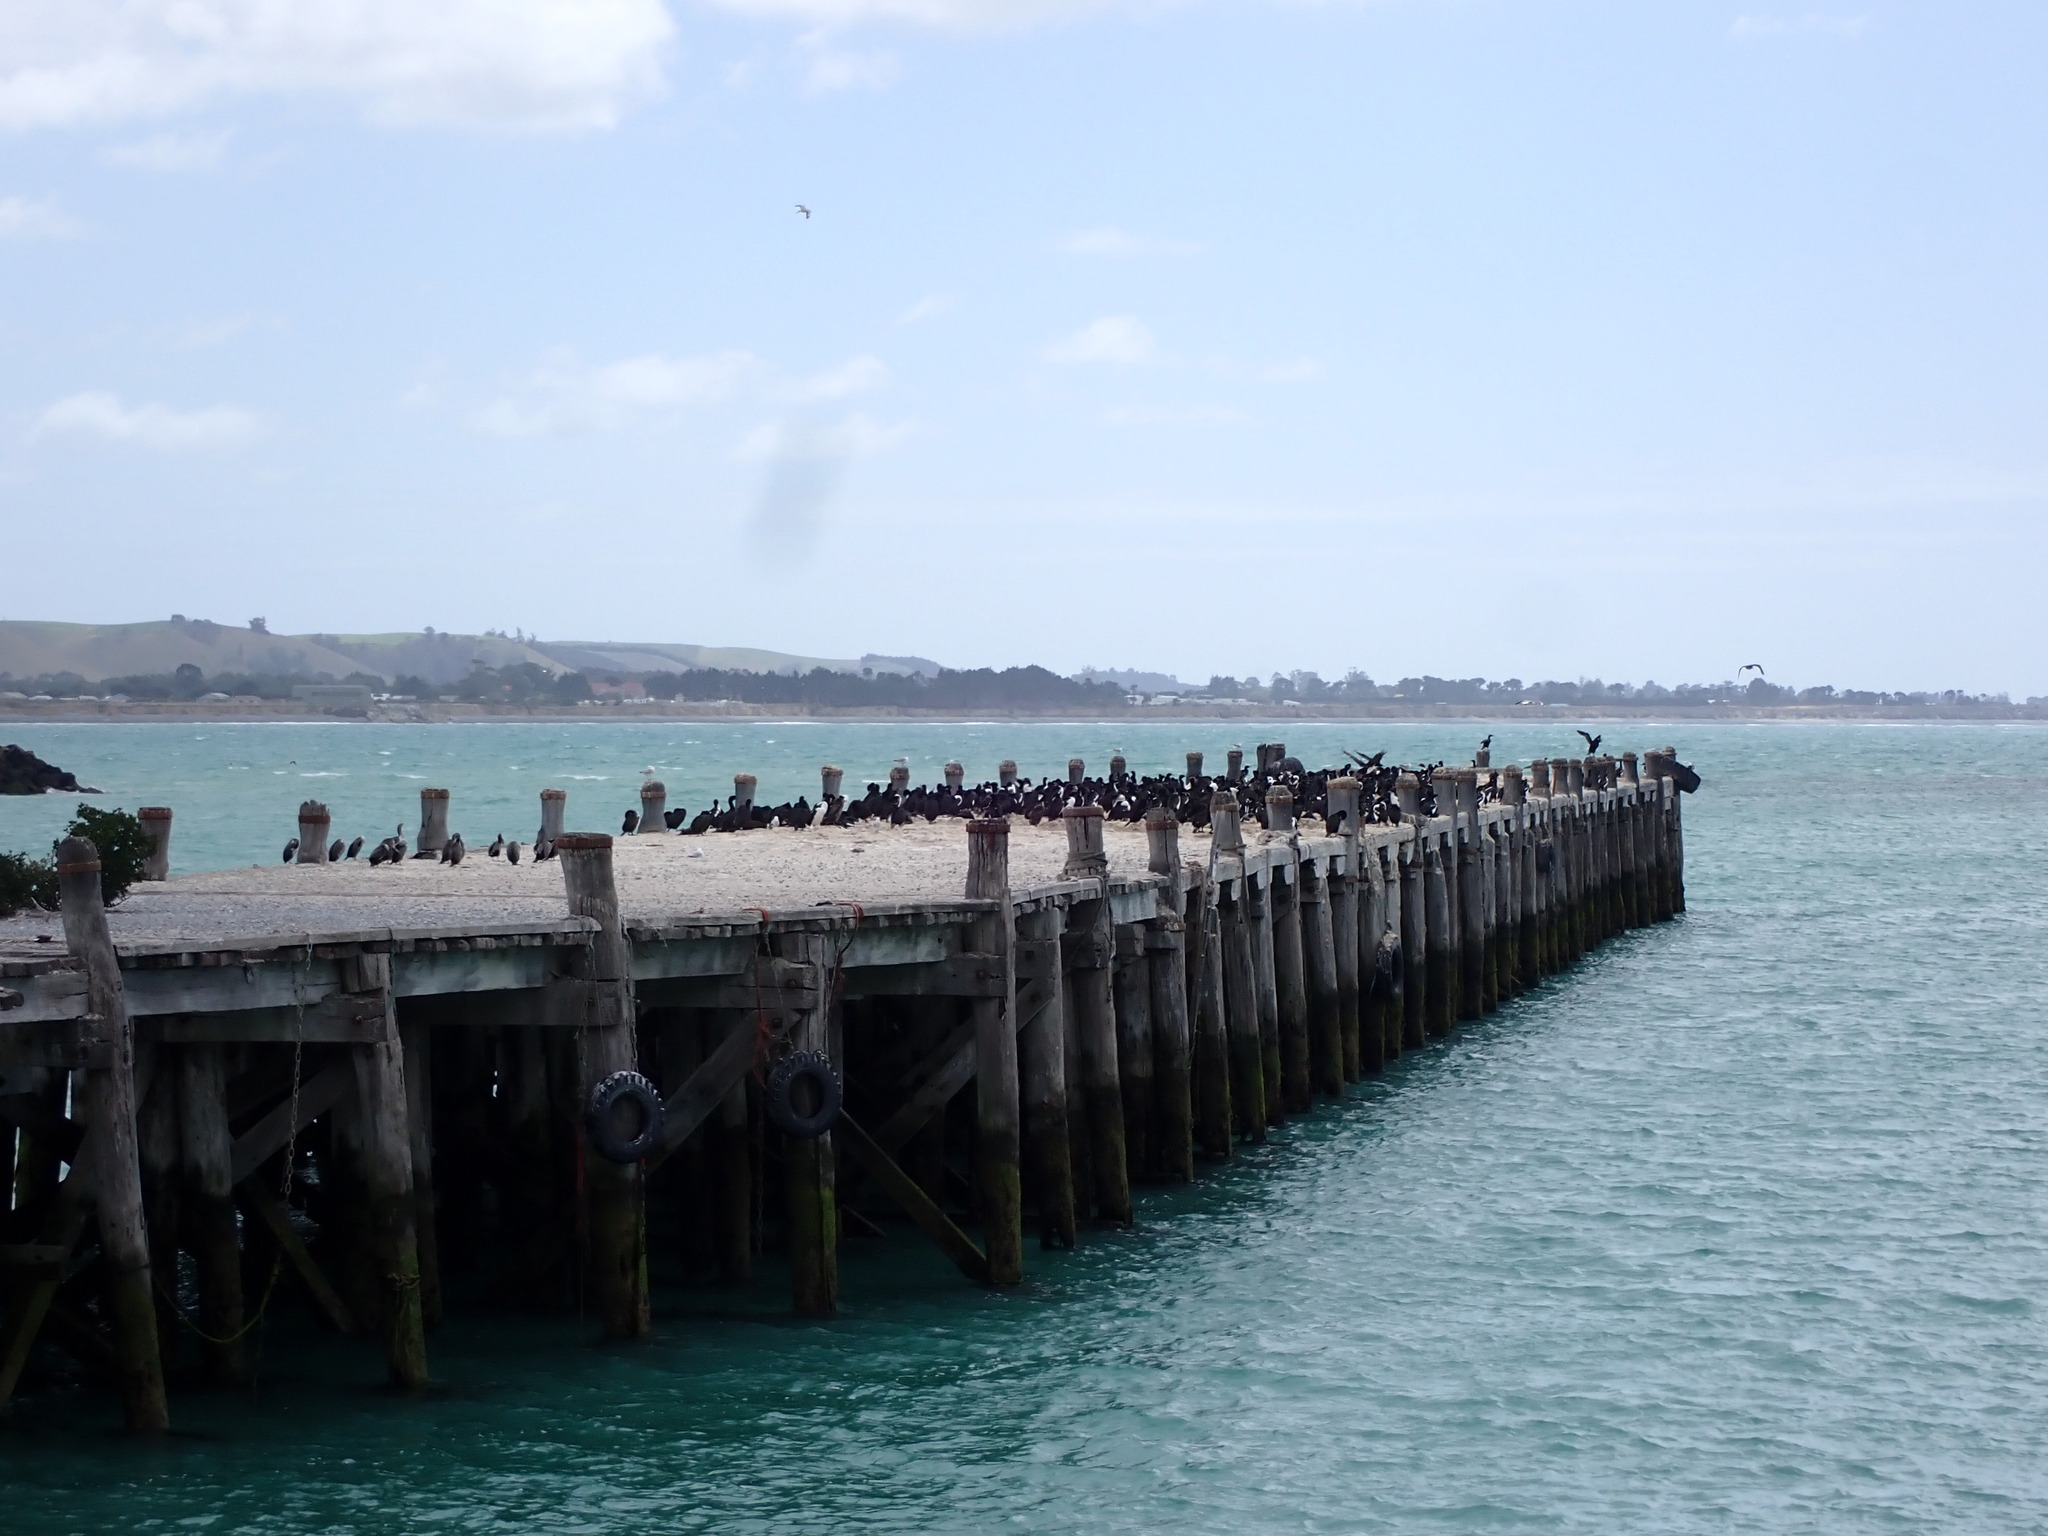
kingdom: Animalia
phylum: Chordata
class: Aves
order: Suliformes
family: Phalacrocoracidae
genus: Leucocarbo
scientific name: Leucocarbo chalconotus
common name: Stewart shag
